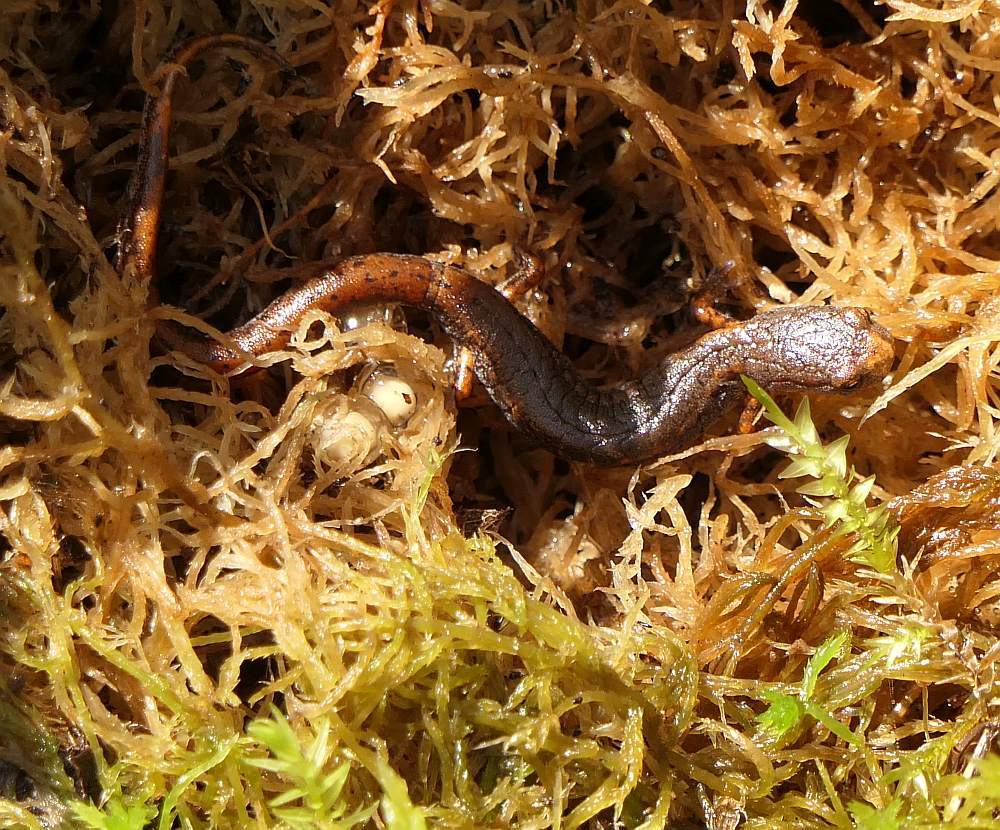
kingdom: Animalia
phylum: Chordata
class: Amphibia
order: Caudata
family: Plethodontidae
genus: Hemidactylium
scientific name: Hemidactylium scutatum
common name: Four-toed salamander
